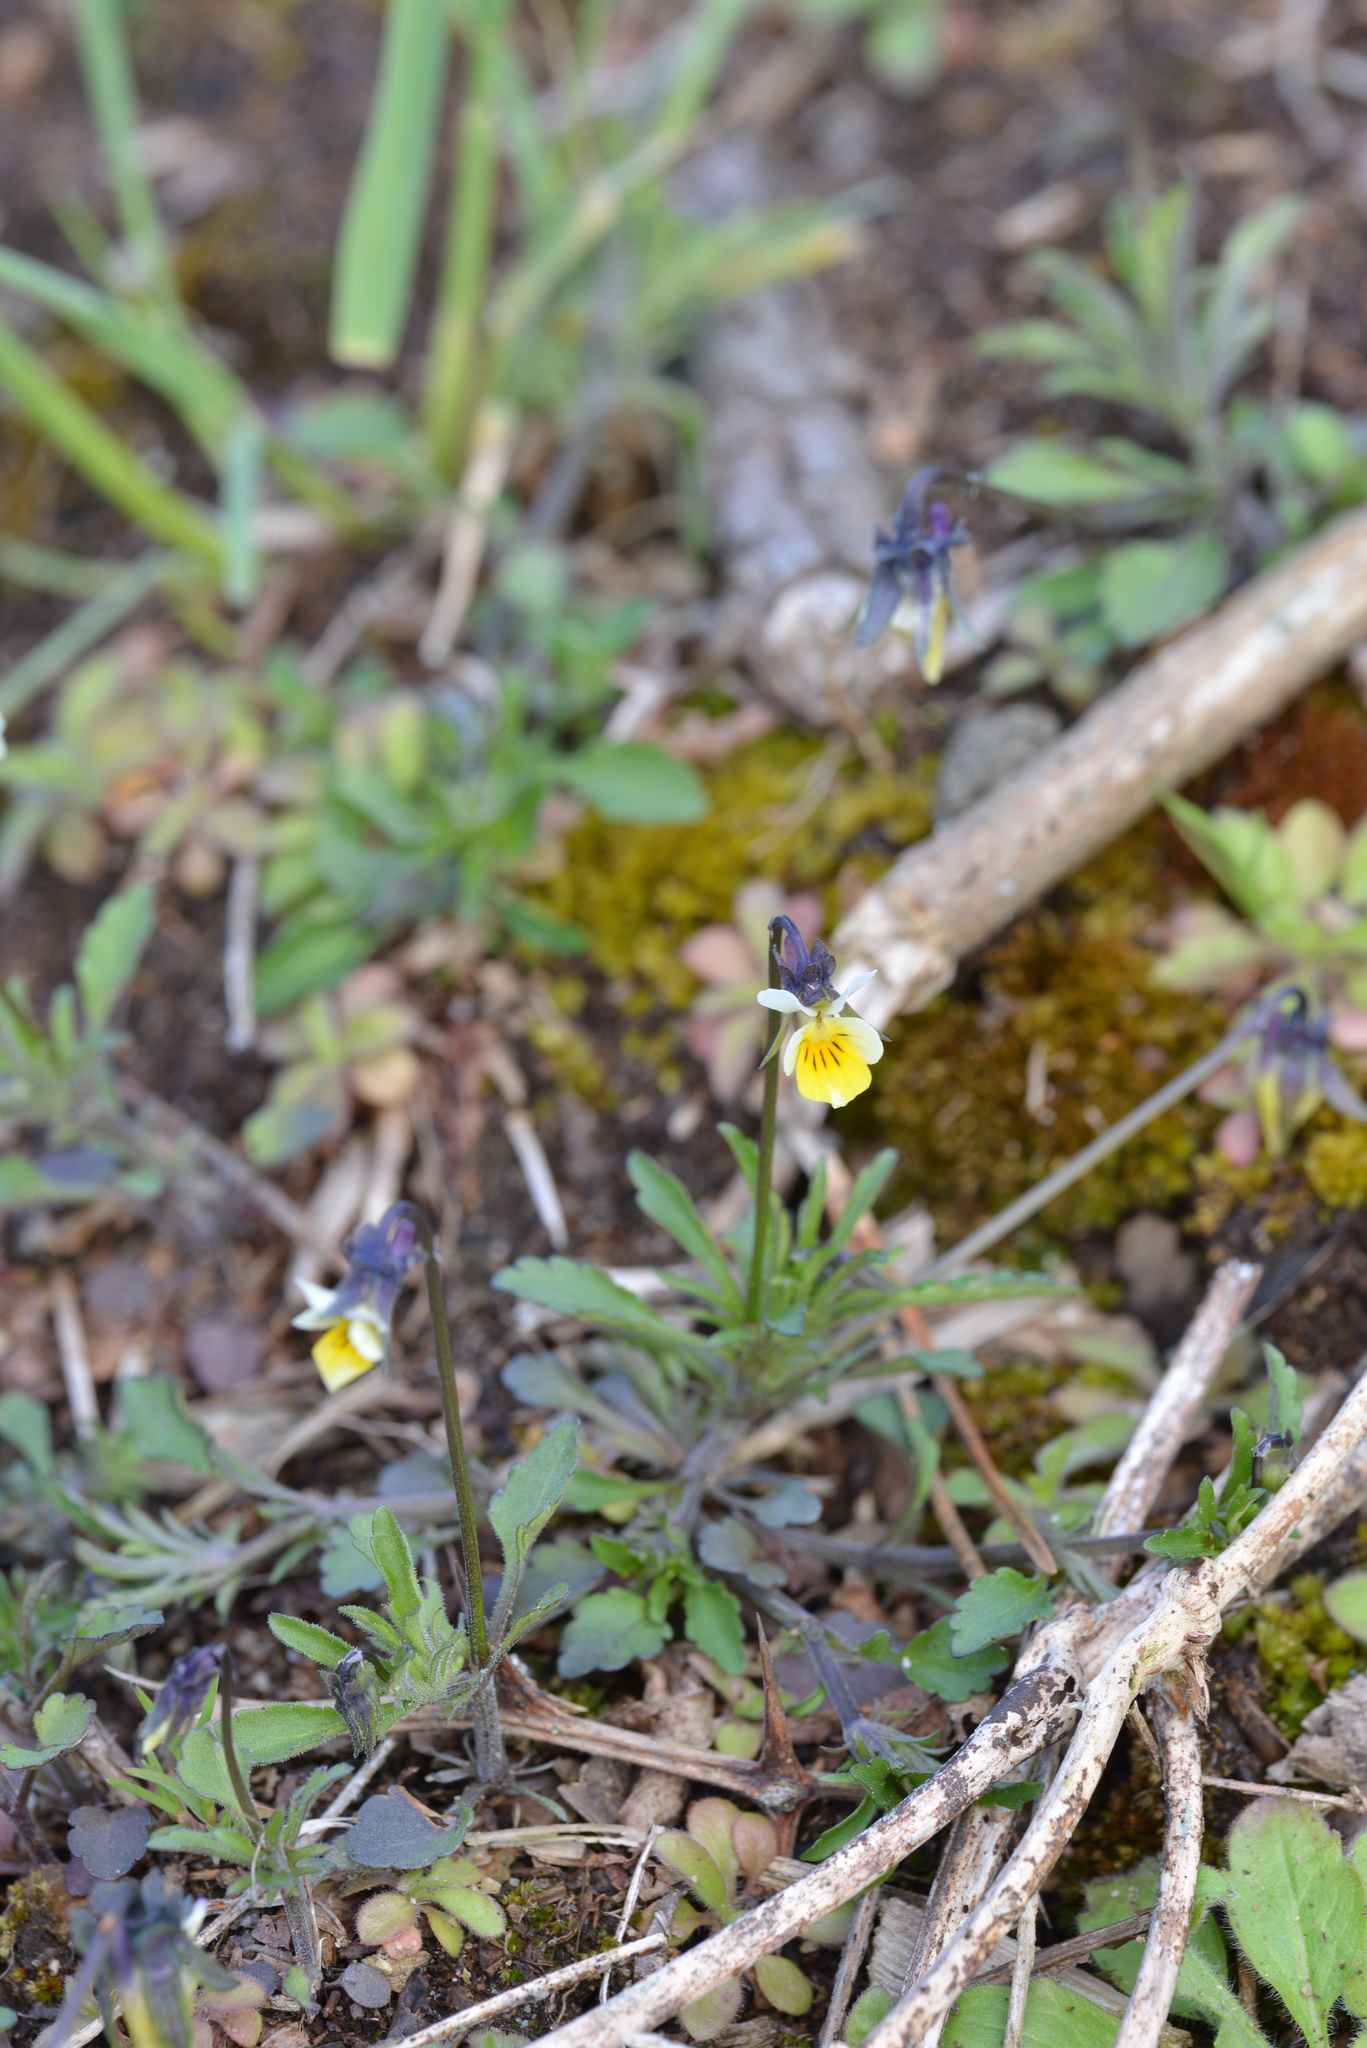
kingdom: Plantae
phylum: Tracheophyta
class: Magnoliopsida
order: Malpighiales
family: Violaceae
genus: Viola
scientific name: Viola arvensis
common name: Field pansy
